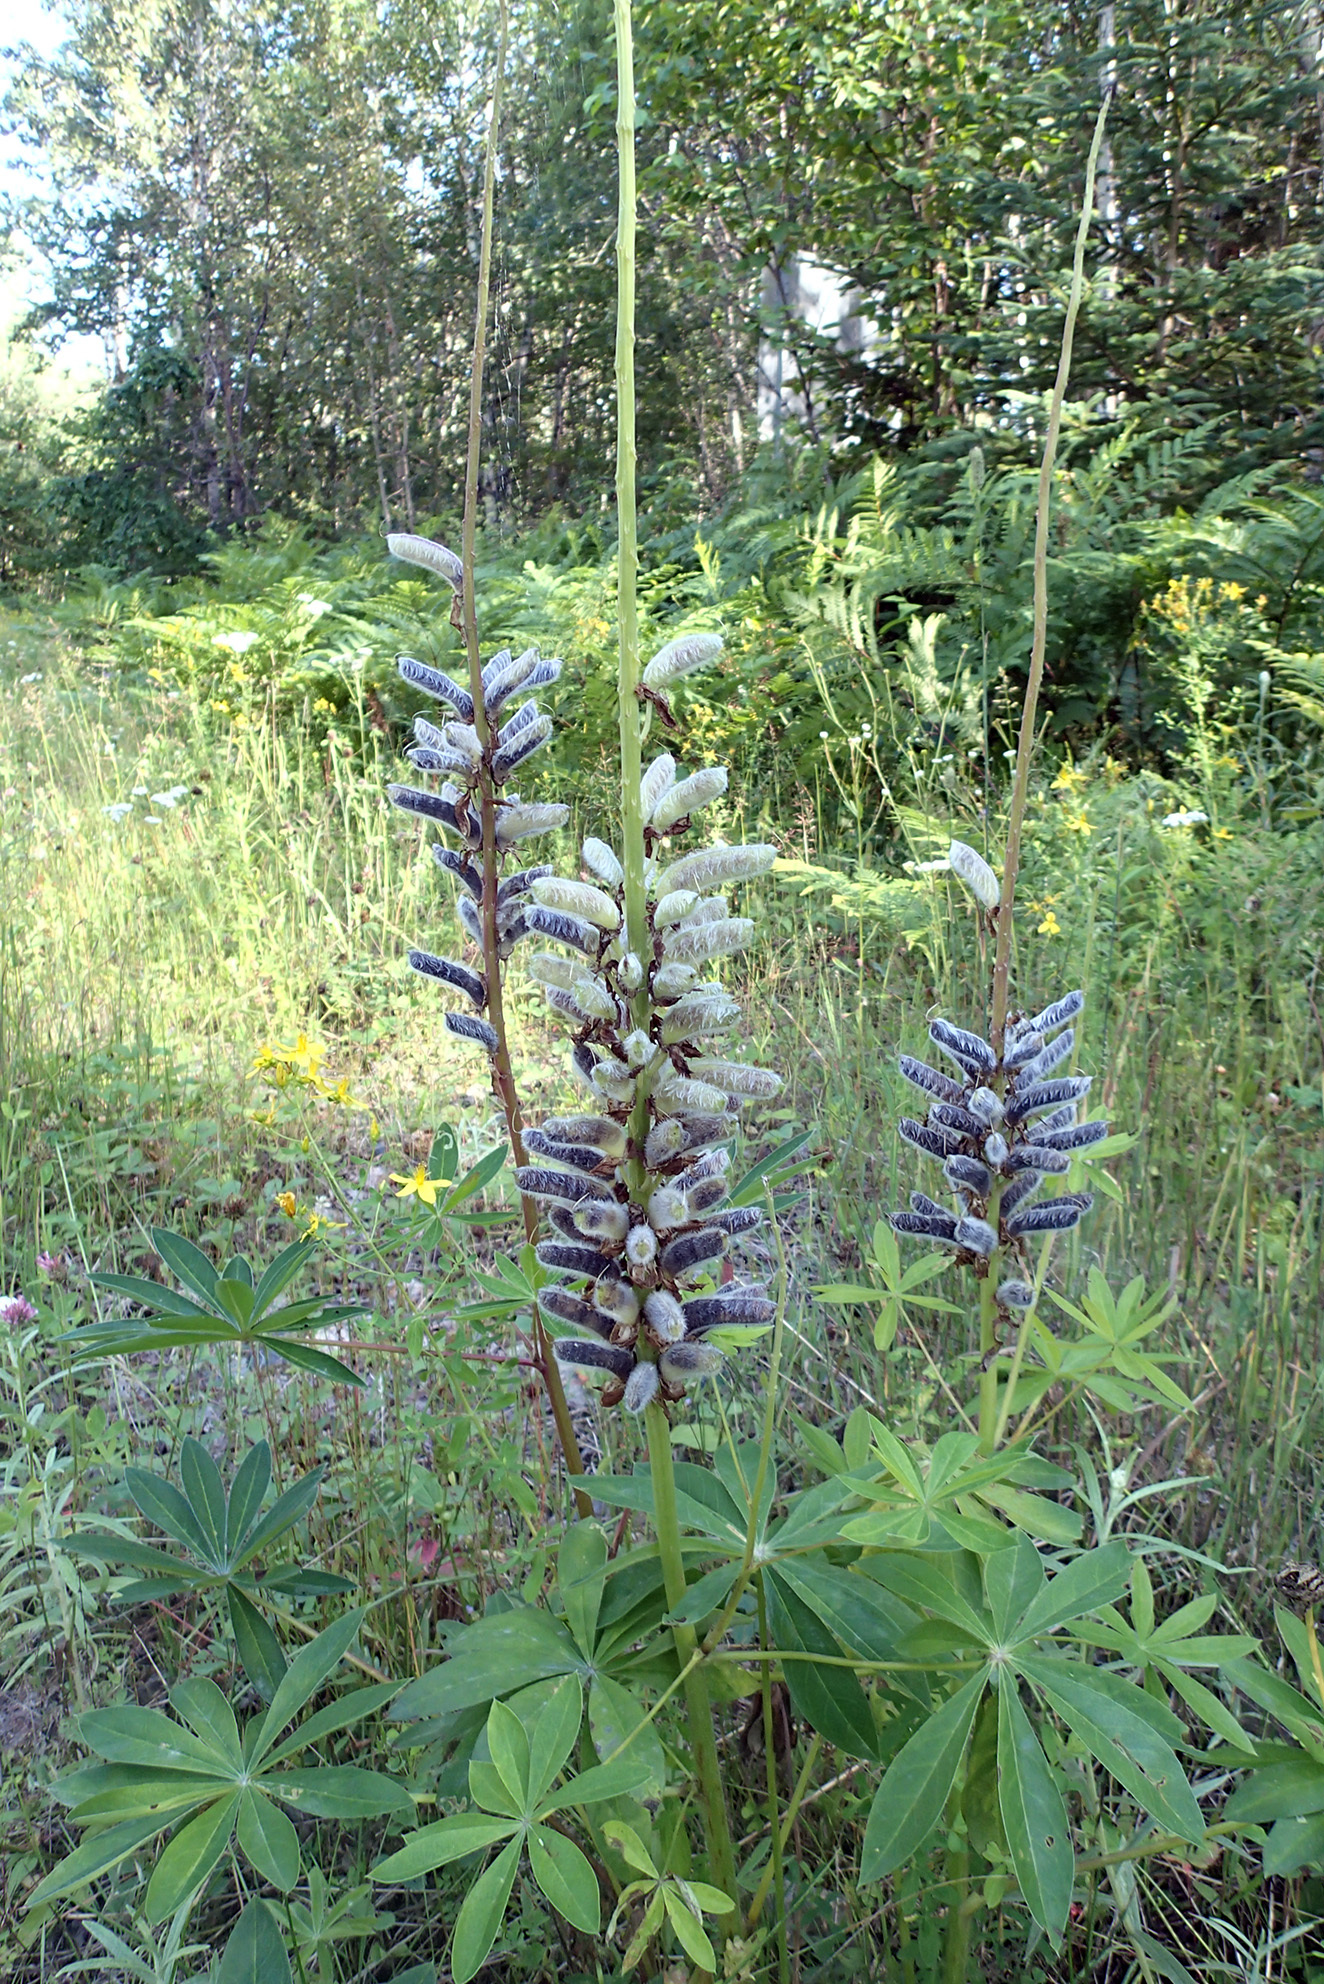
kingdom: Plantae
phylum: Tracheophyta
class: Magnoliopsida
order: Fabales
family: Fabaceae
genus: Lupinus
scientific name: Lupinus polyphyllus
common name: Garden lupin
